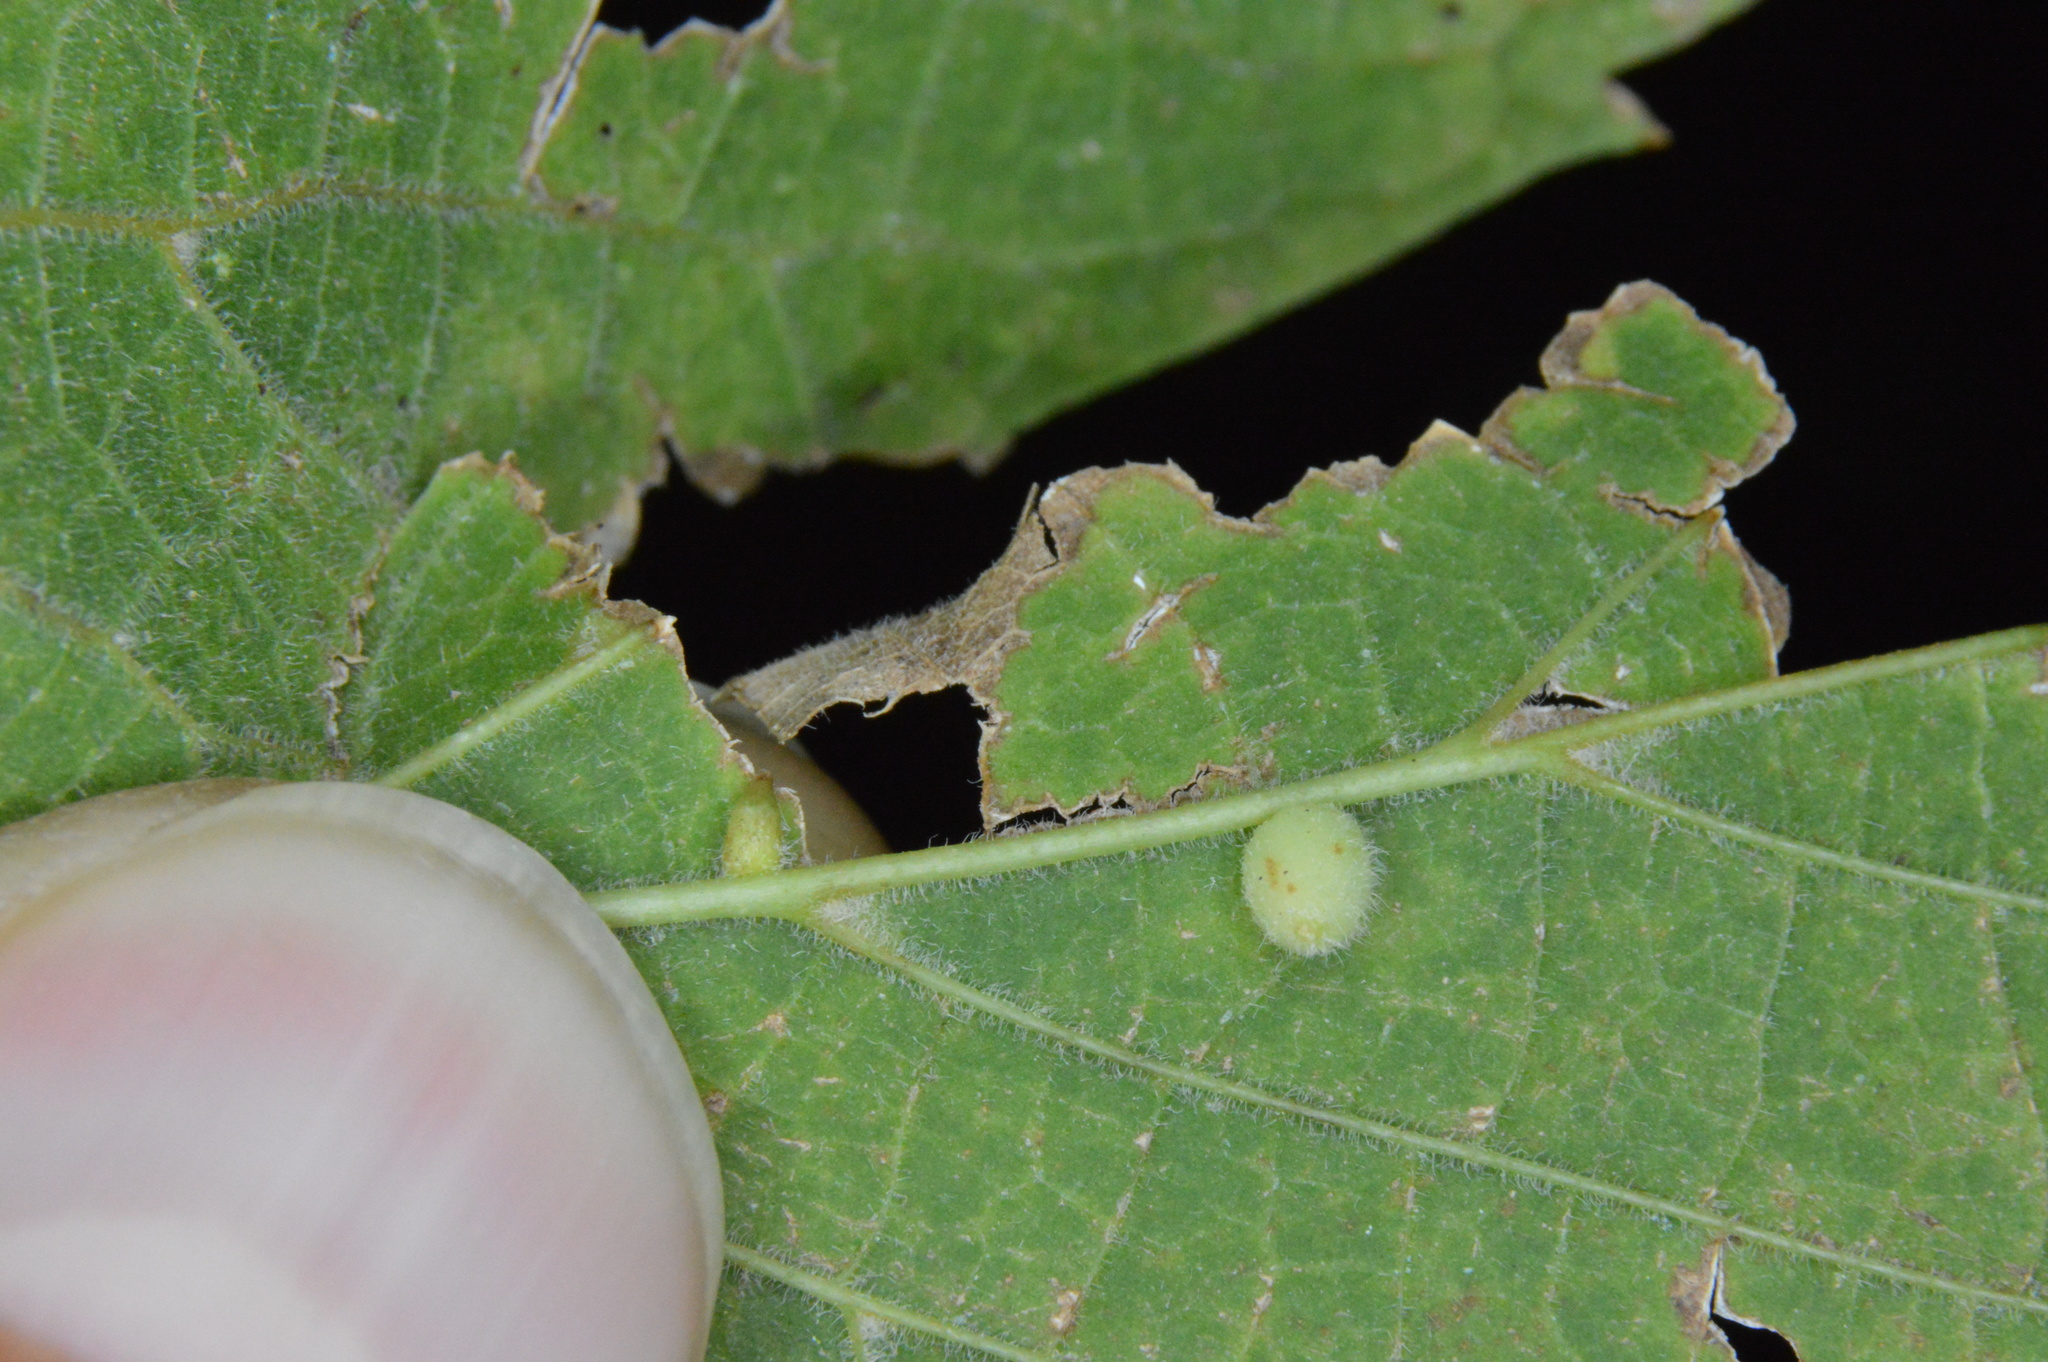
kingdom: Animalia
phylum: Arthropoda
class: Insecta
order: Diptera
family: Cecidomyiidae
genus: Celticecis
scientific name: Celticecis globosa
